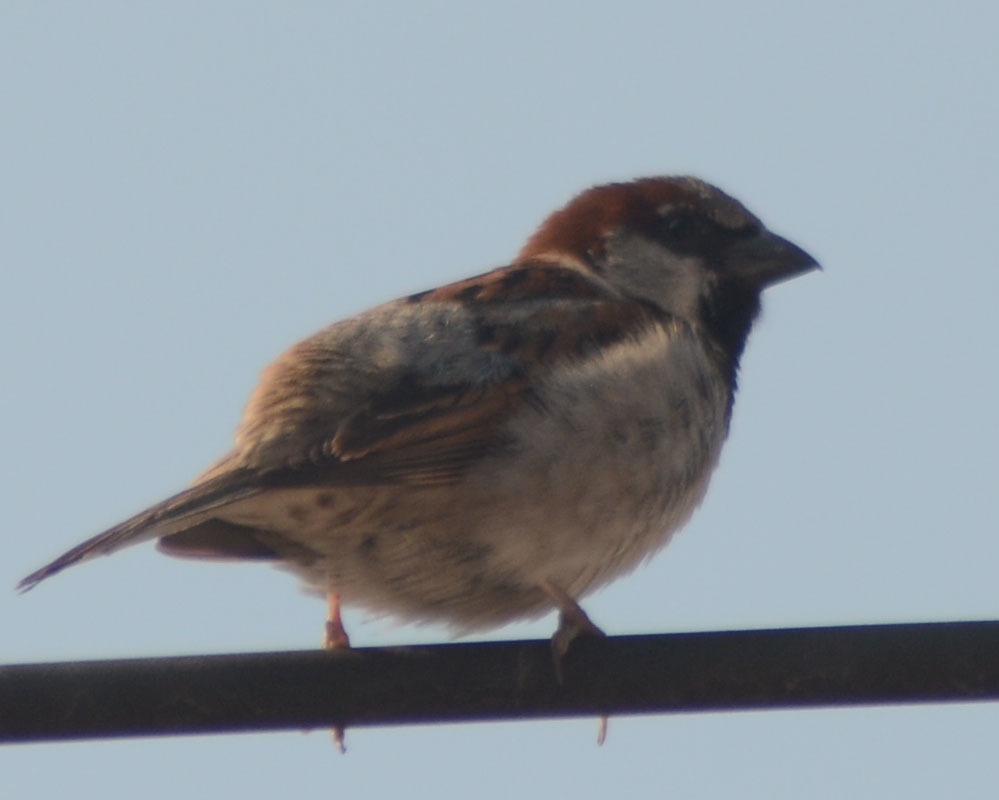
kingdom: Animalia
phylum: Chordata
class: Aves
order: Passeriformes
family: Passeridae
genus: Passer
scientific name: Passer domesticus
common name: House sparrow
